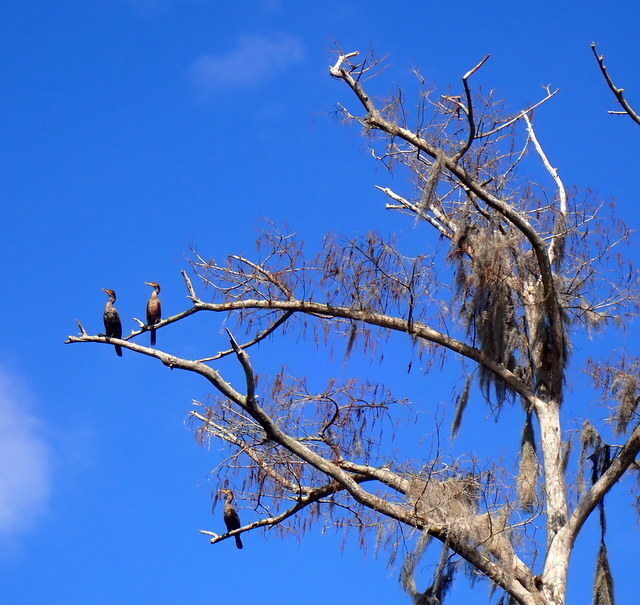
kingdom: Animalia
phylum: Chordata
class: Aves
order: Suliformes
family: Phalacrocoracidae
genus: Phalacrocorax
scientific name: Phalacrocorax auritus
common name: Double-crested cormorant
